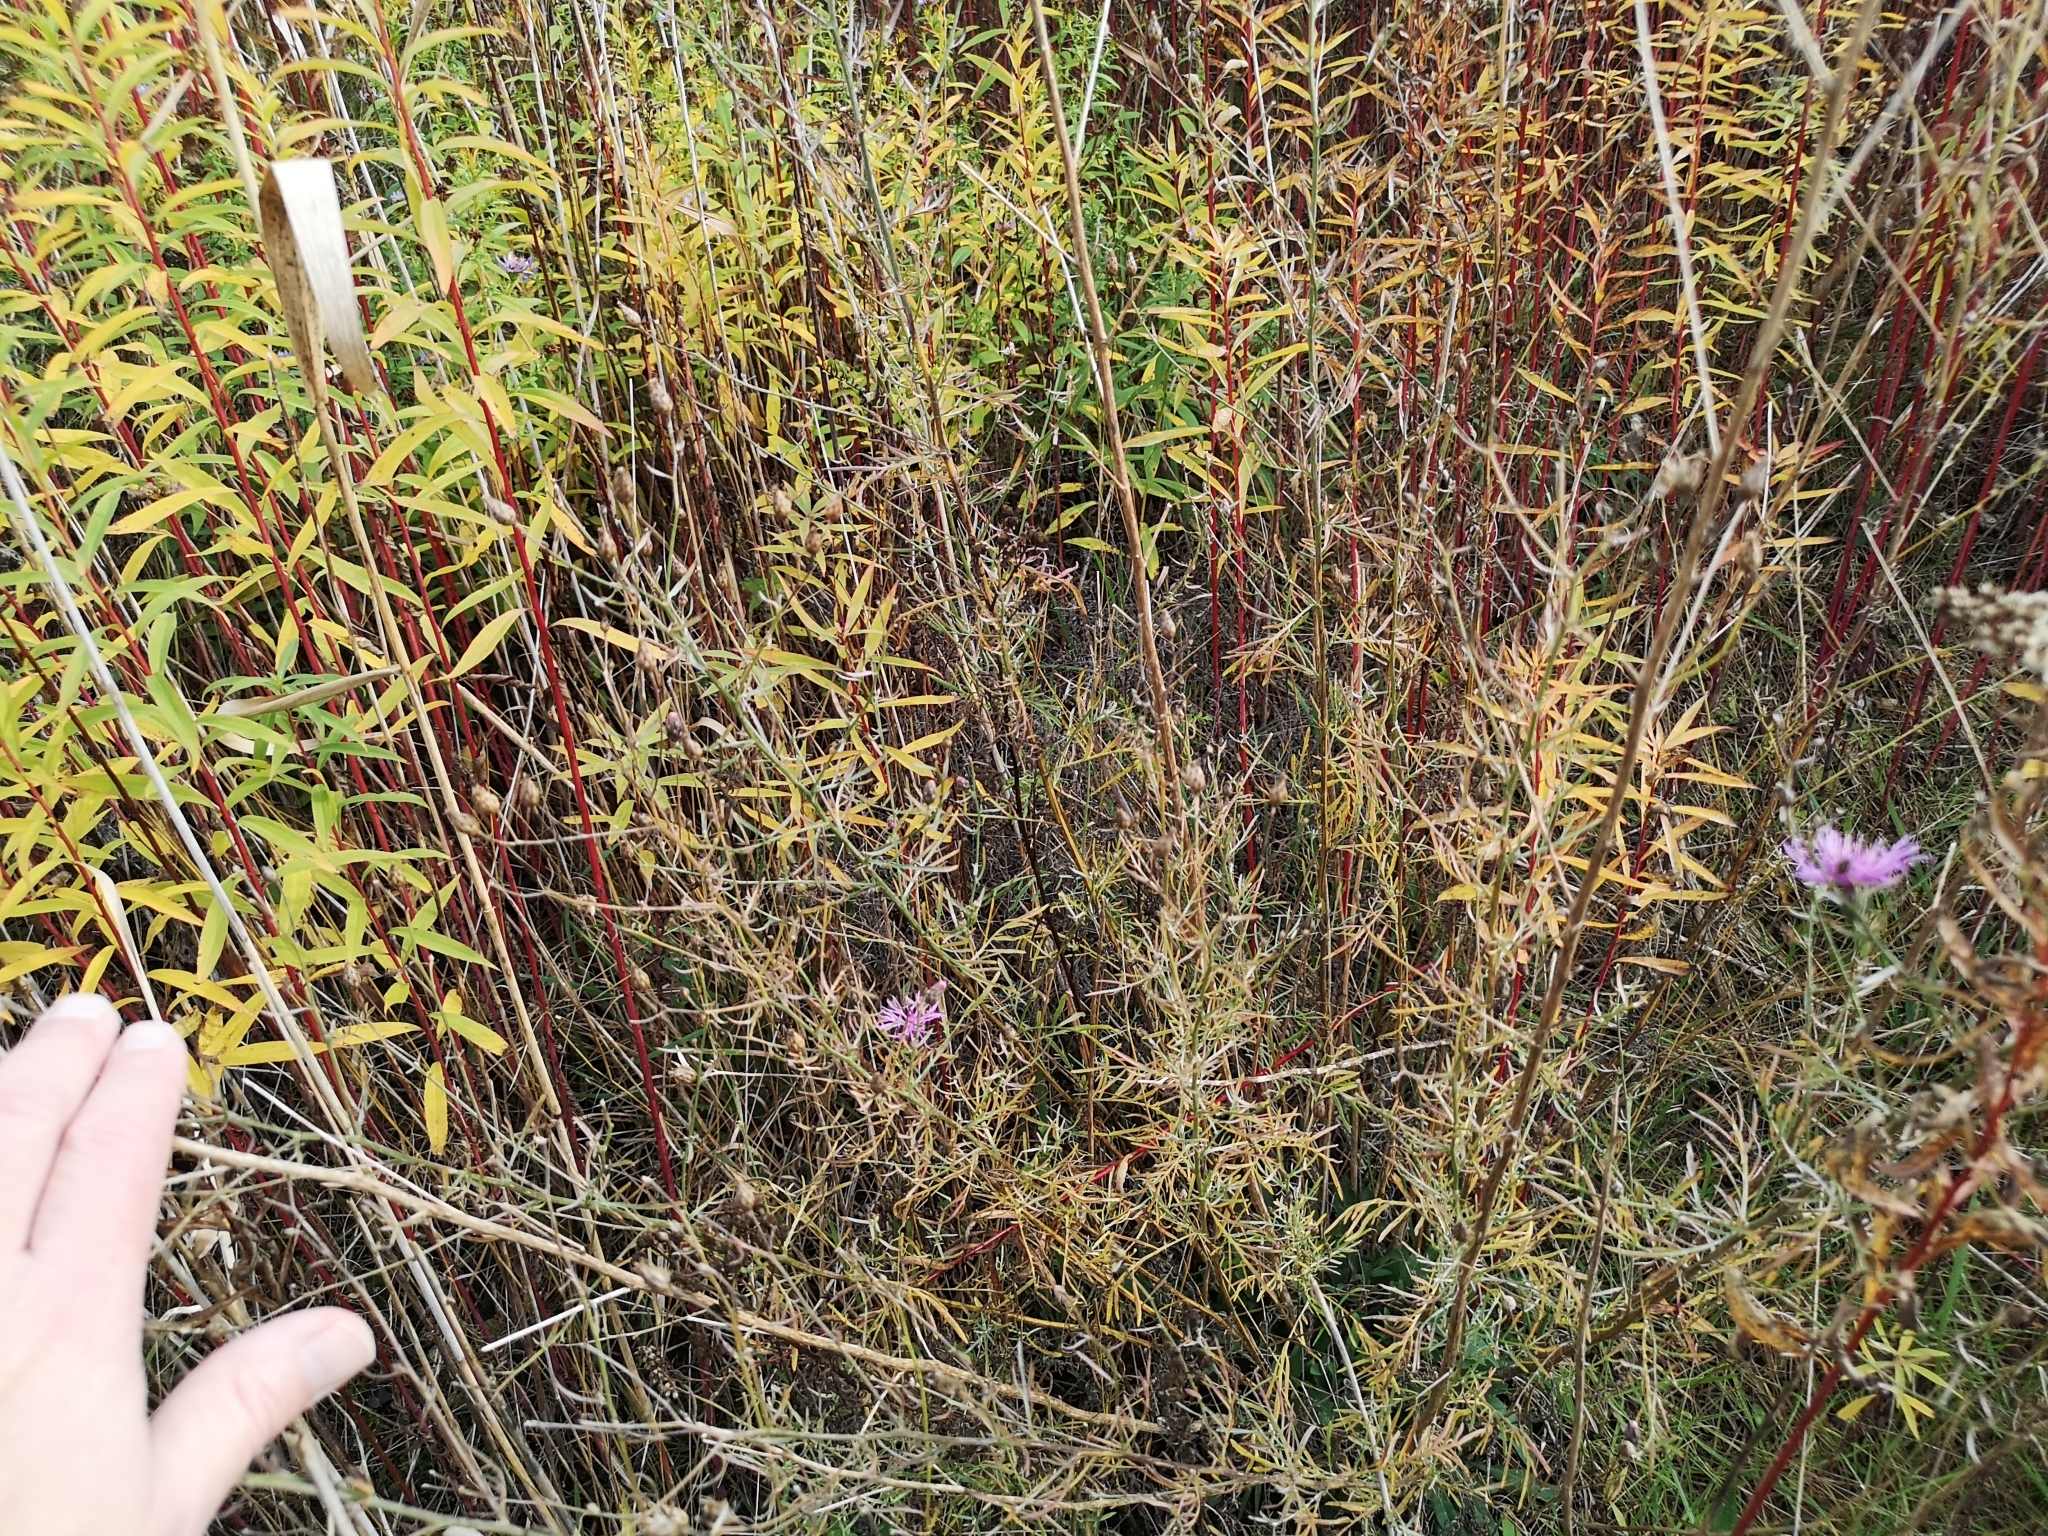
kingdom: Plantae
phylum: Tracheophyta
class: Magnoliopsida
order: Asterales
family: Asteraceae
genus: Centaurea
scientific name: Centaurea stoebe
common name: Spotted knapweed
